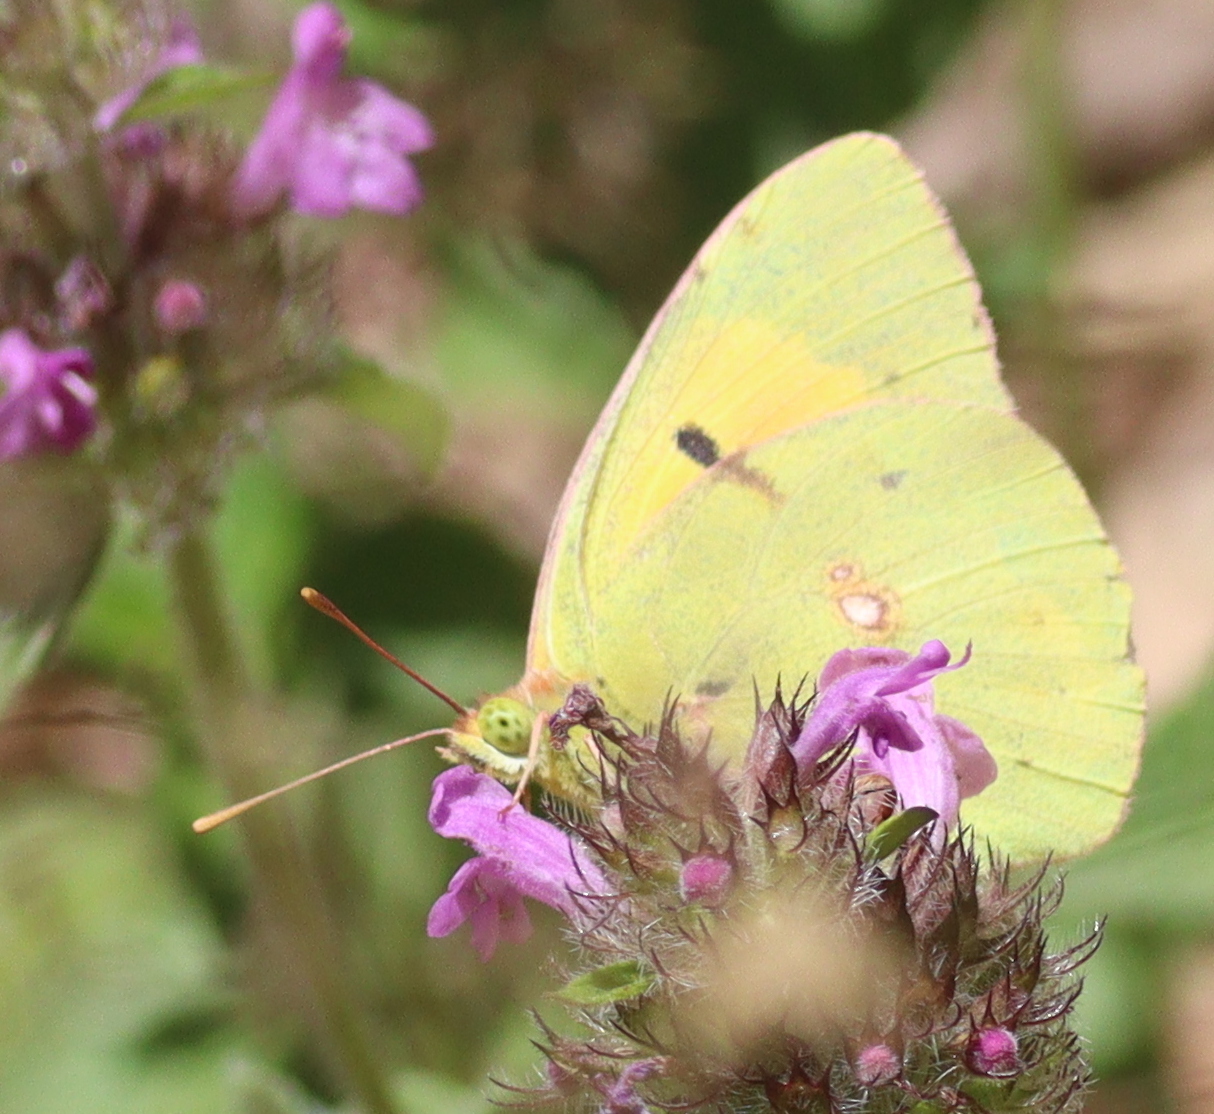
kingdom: Animalia
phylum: Arthropoda
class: Insecta
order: Lepidoptera
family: Pieridae
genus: Colias
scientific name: Colias croceus
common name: Clouded yellow
